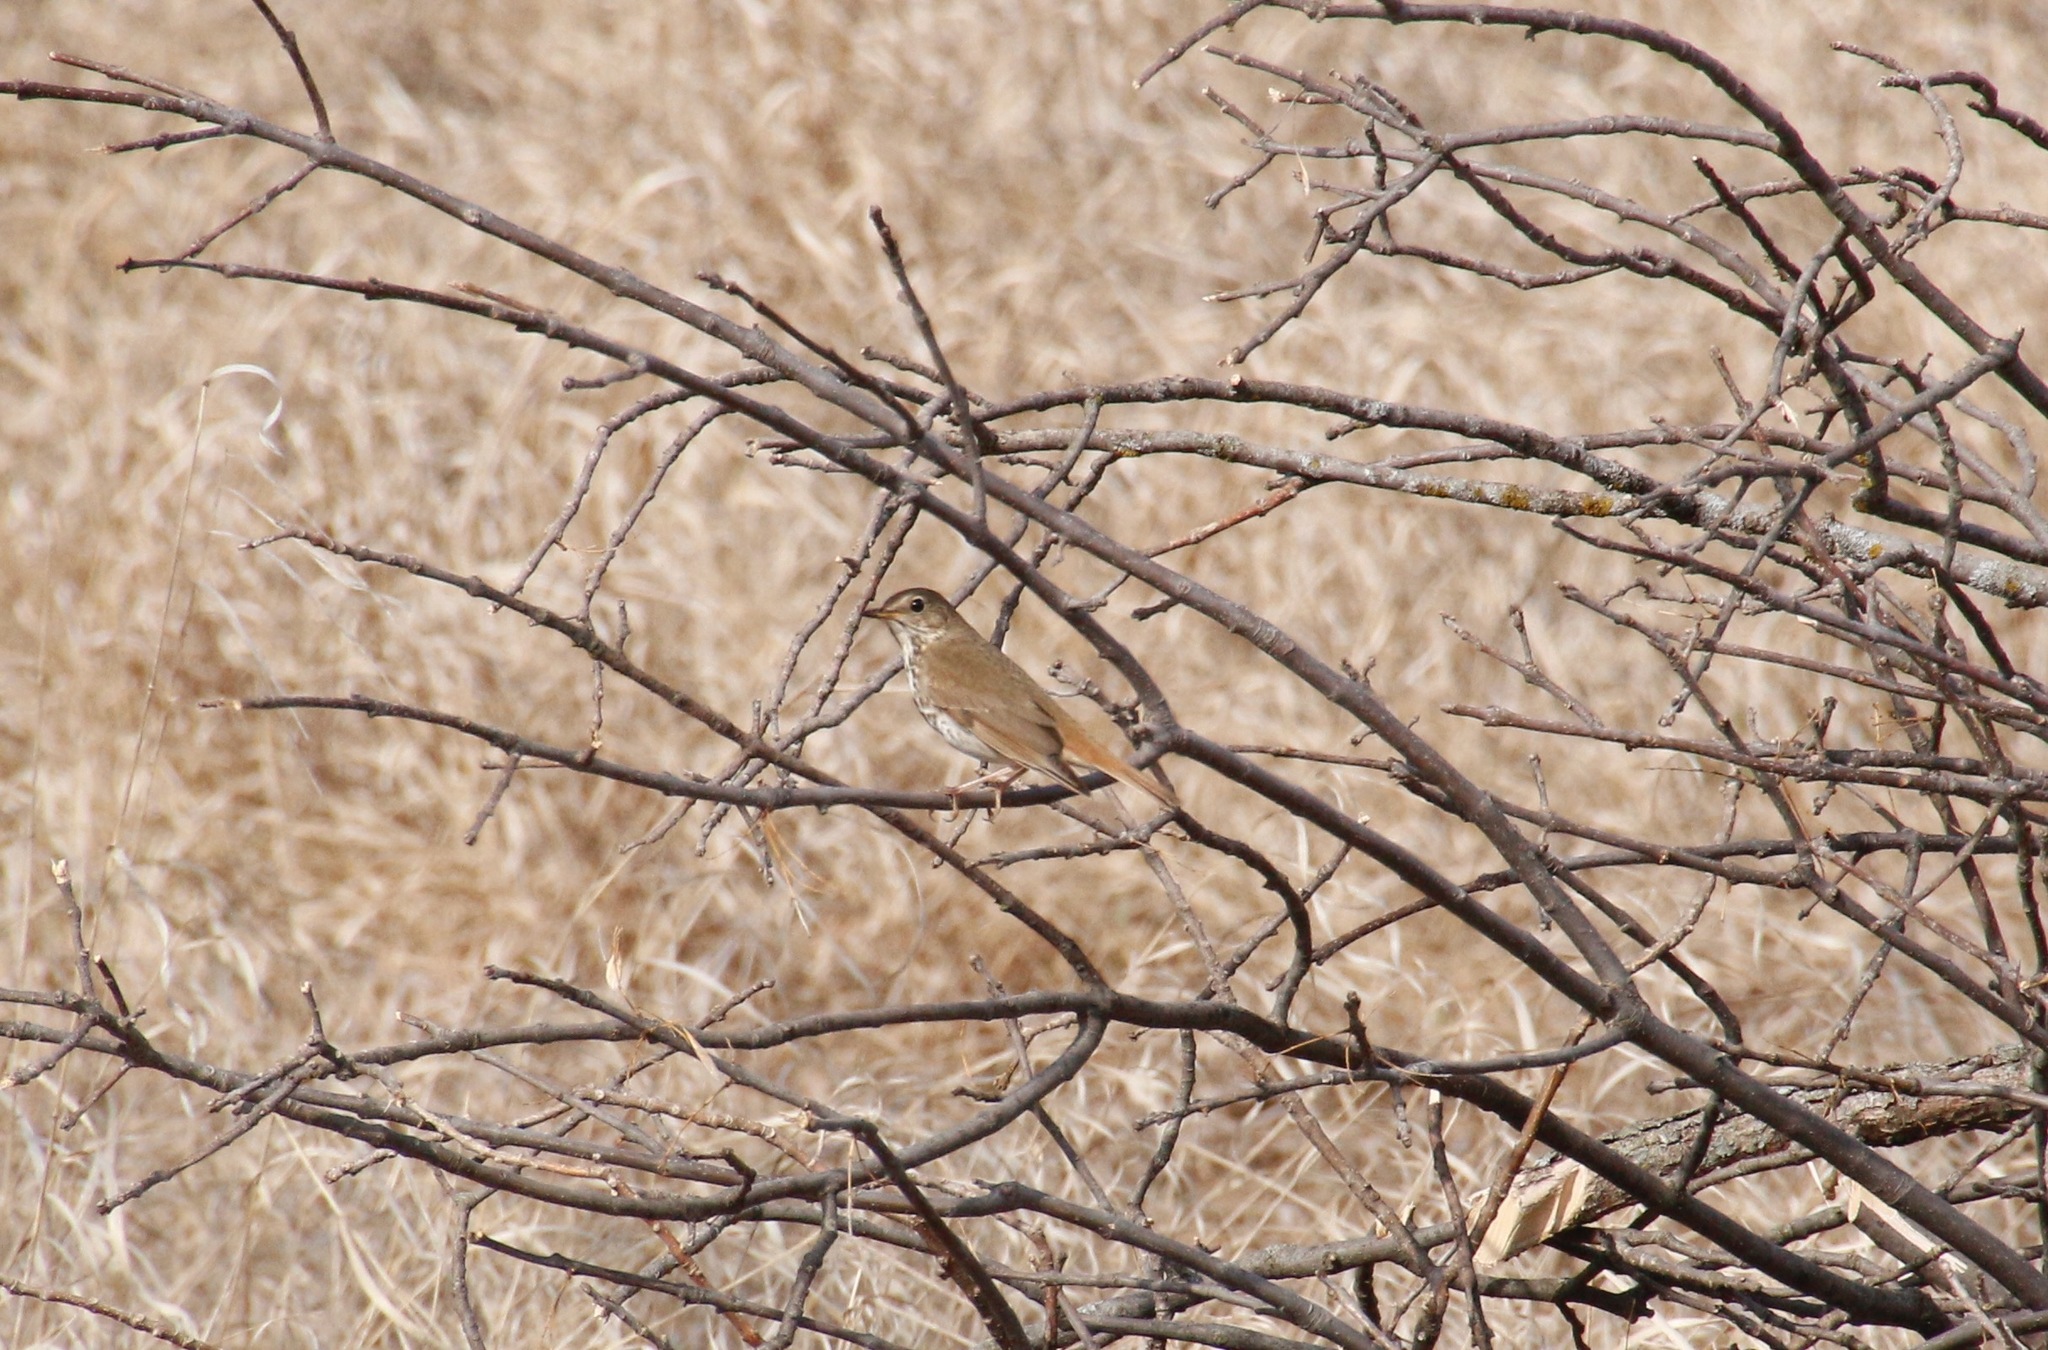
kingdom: Animalia
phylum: Chordata
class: Aves
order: Passeriformes
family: Turdidae
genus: Catharus
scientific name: Catharus guttatus
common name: Hermit thrush
